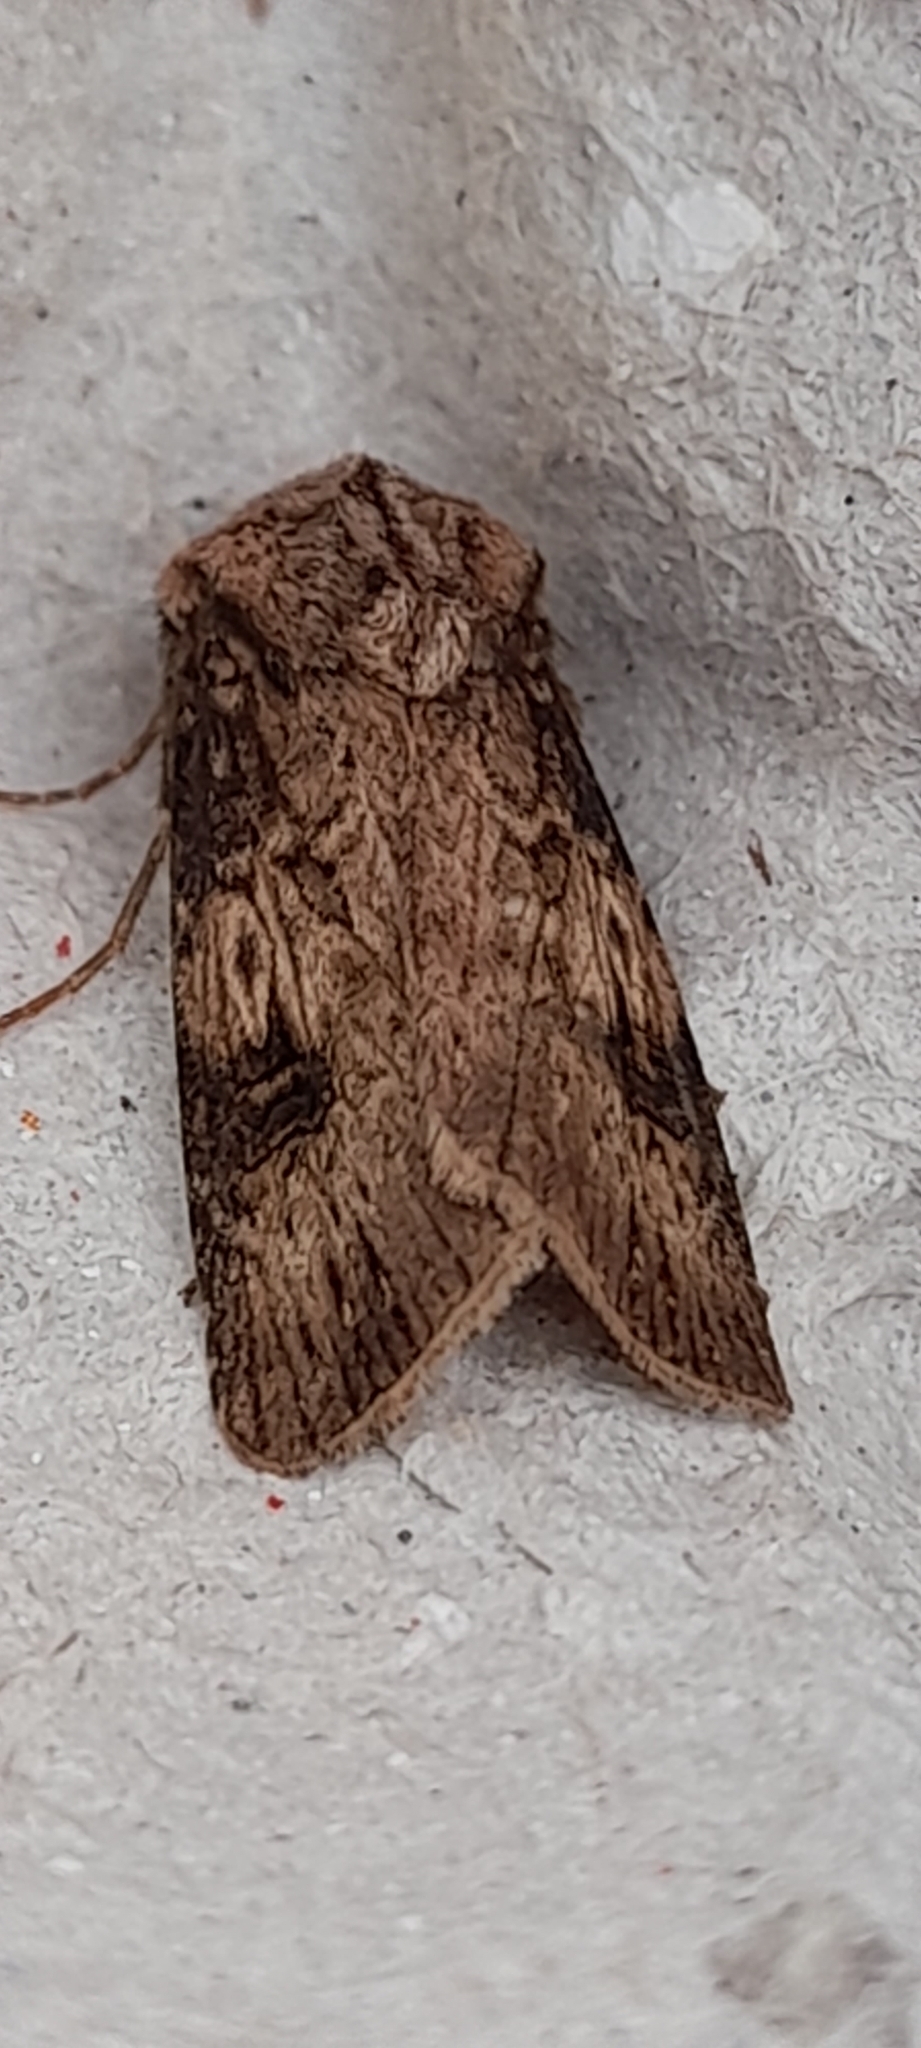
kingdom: Animalia
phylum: Arthropoda
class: Insecta
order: Lepidoptera
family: Noctuidae
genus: Agrotis
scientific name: Agrotis puta
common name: Shuttle-shaped dart
